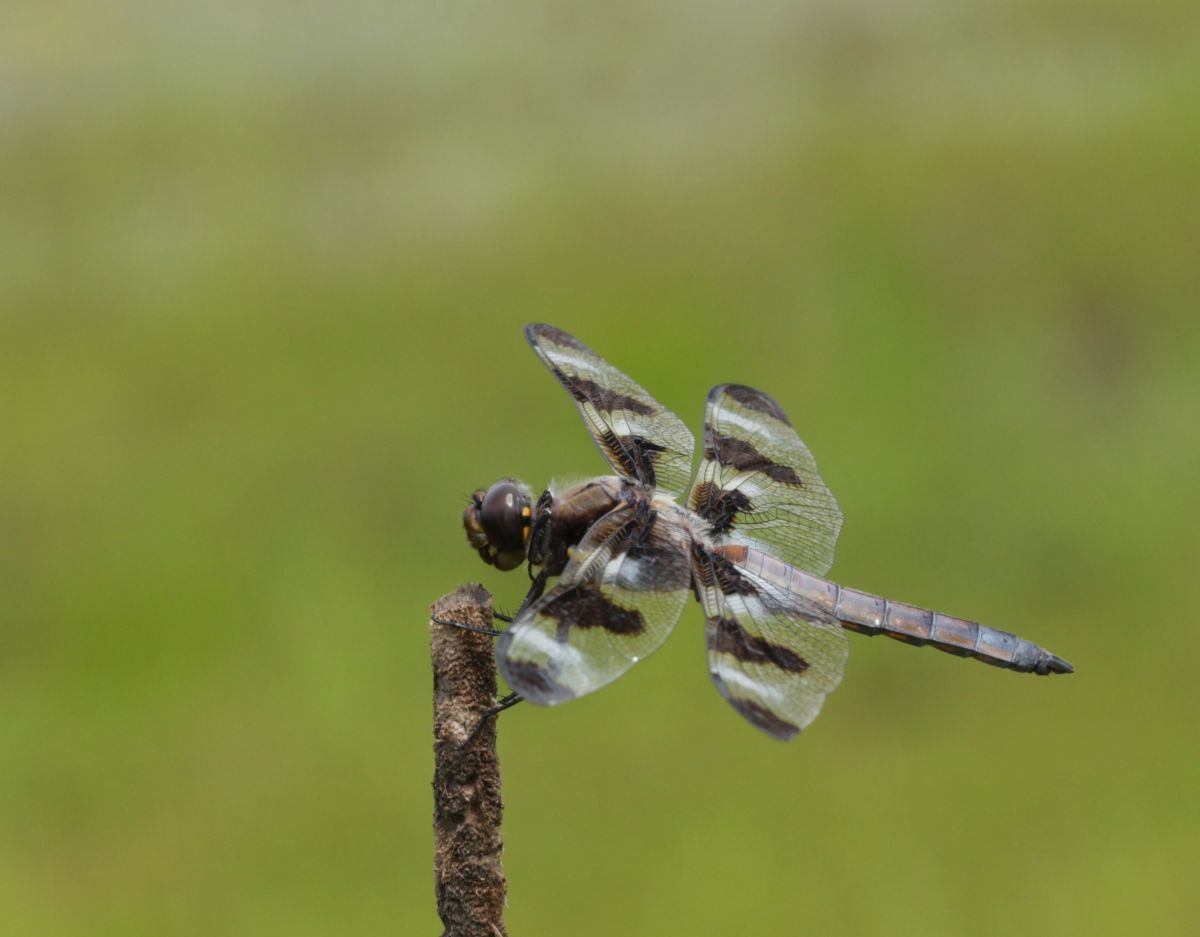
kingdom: Animalia
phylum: Arthropoda
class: Insecta
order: Odonata
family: Libellulidae
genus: Libellula
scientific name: Libellula pulchella
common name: Twelve-spotted skimmer
